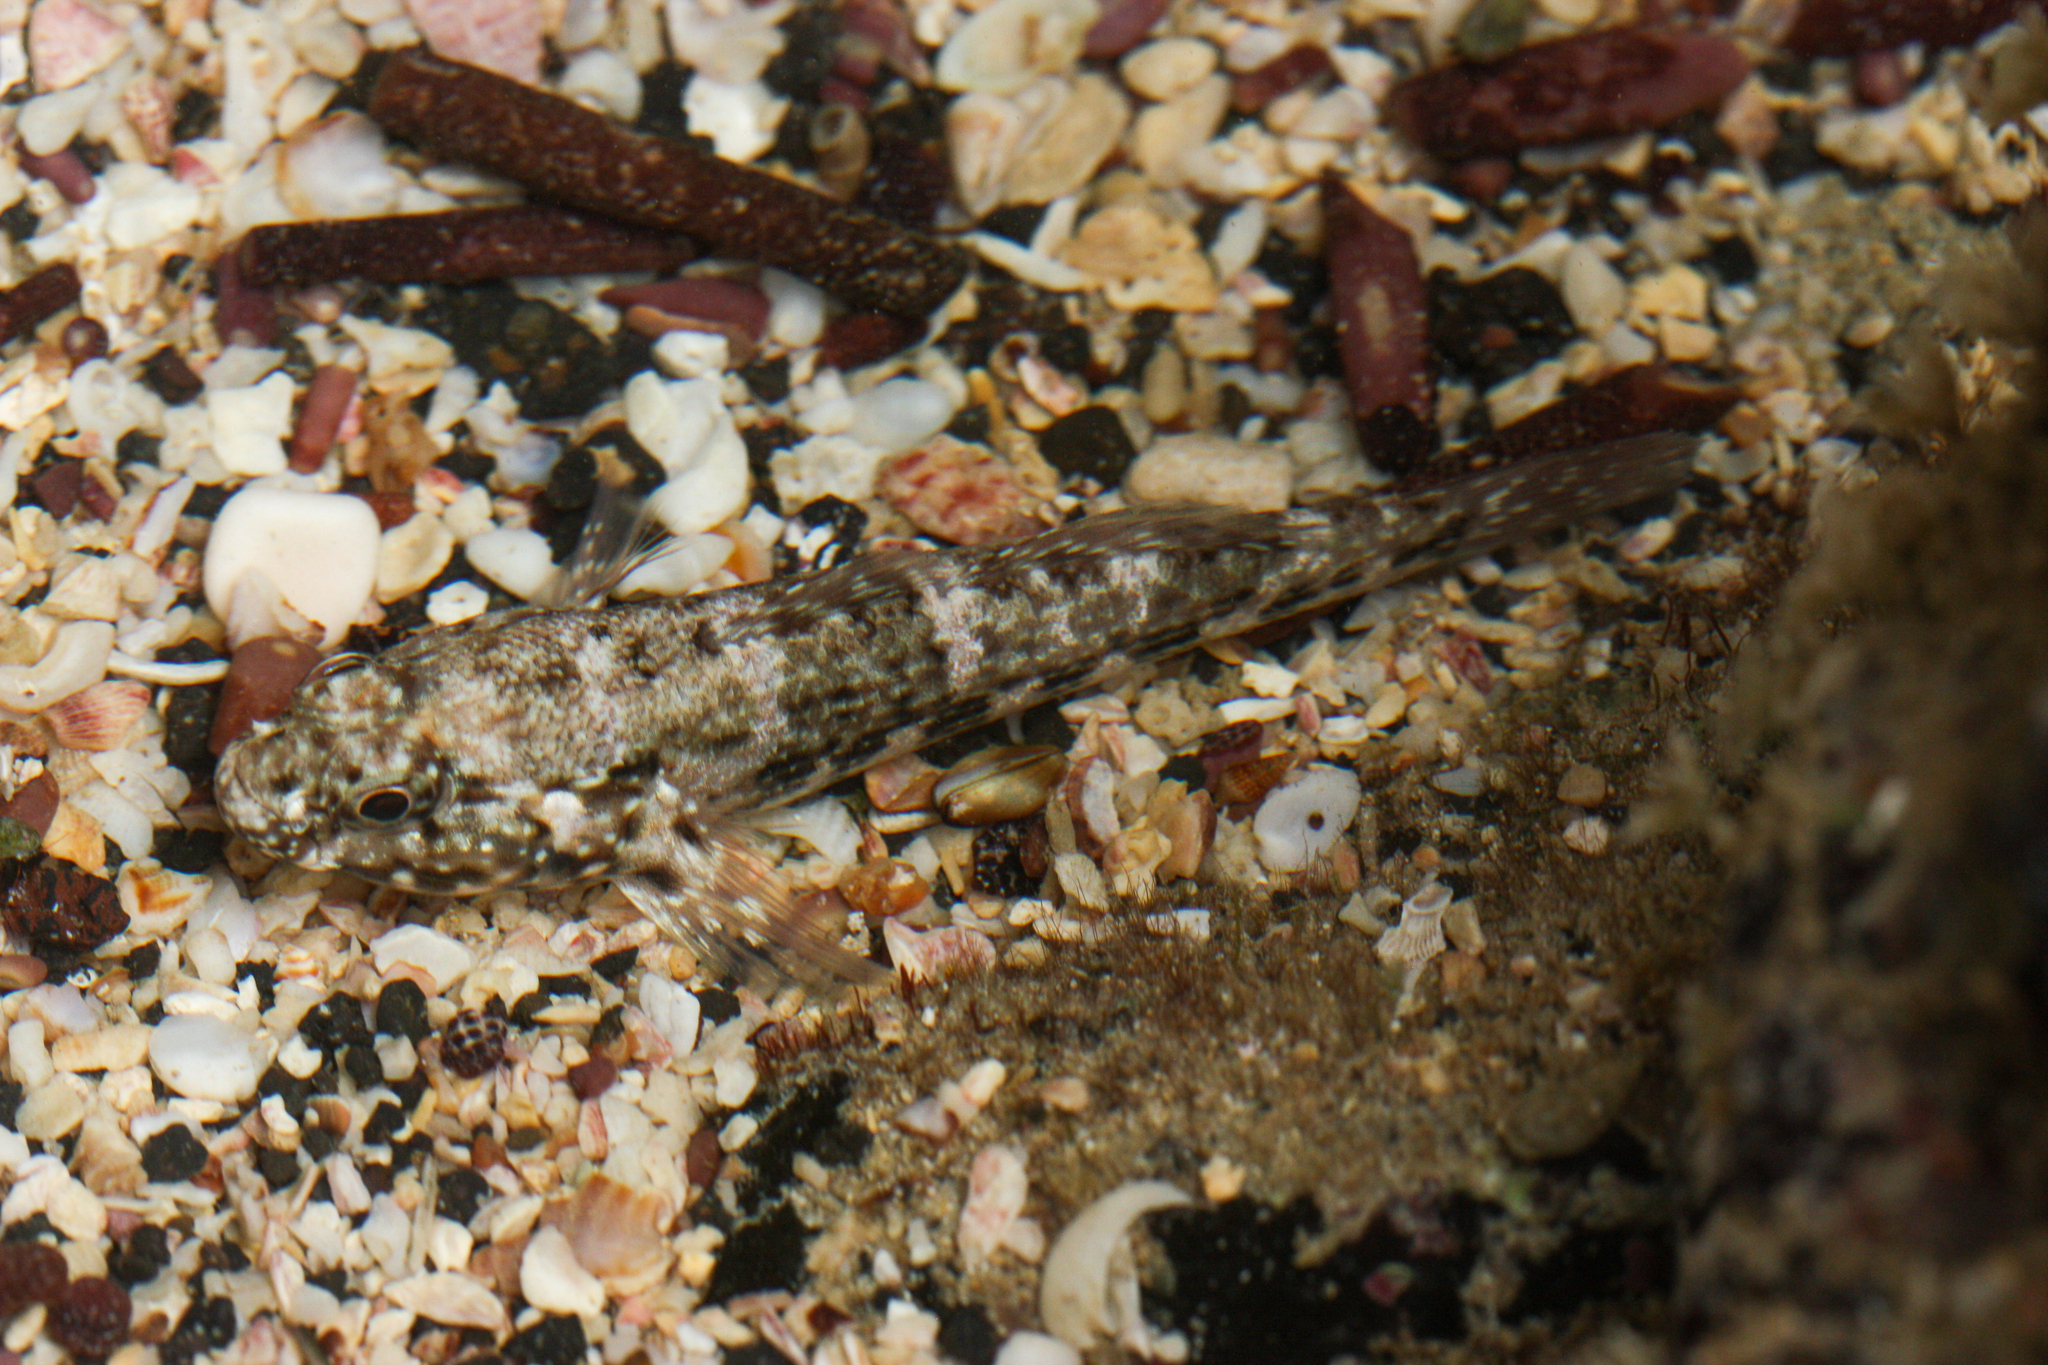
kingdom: Animalia
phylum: Chordata
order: Perciformes
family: Gobiidae
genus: Bathygobius
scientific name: Bathygobius lineatus
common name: Southern frillfin
